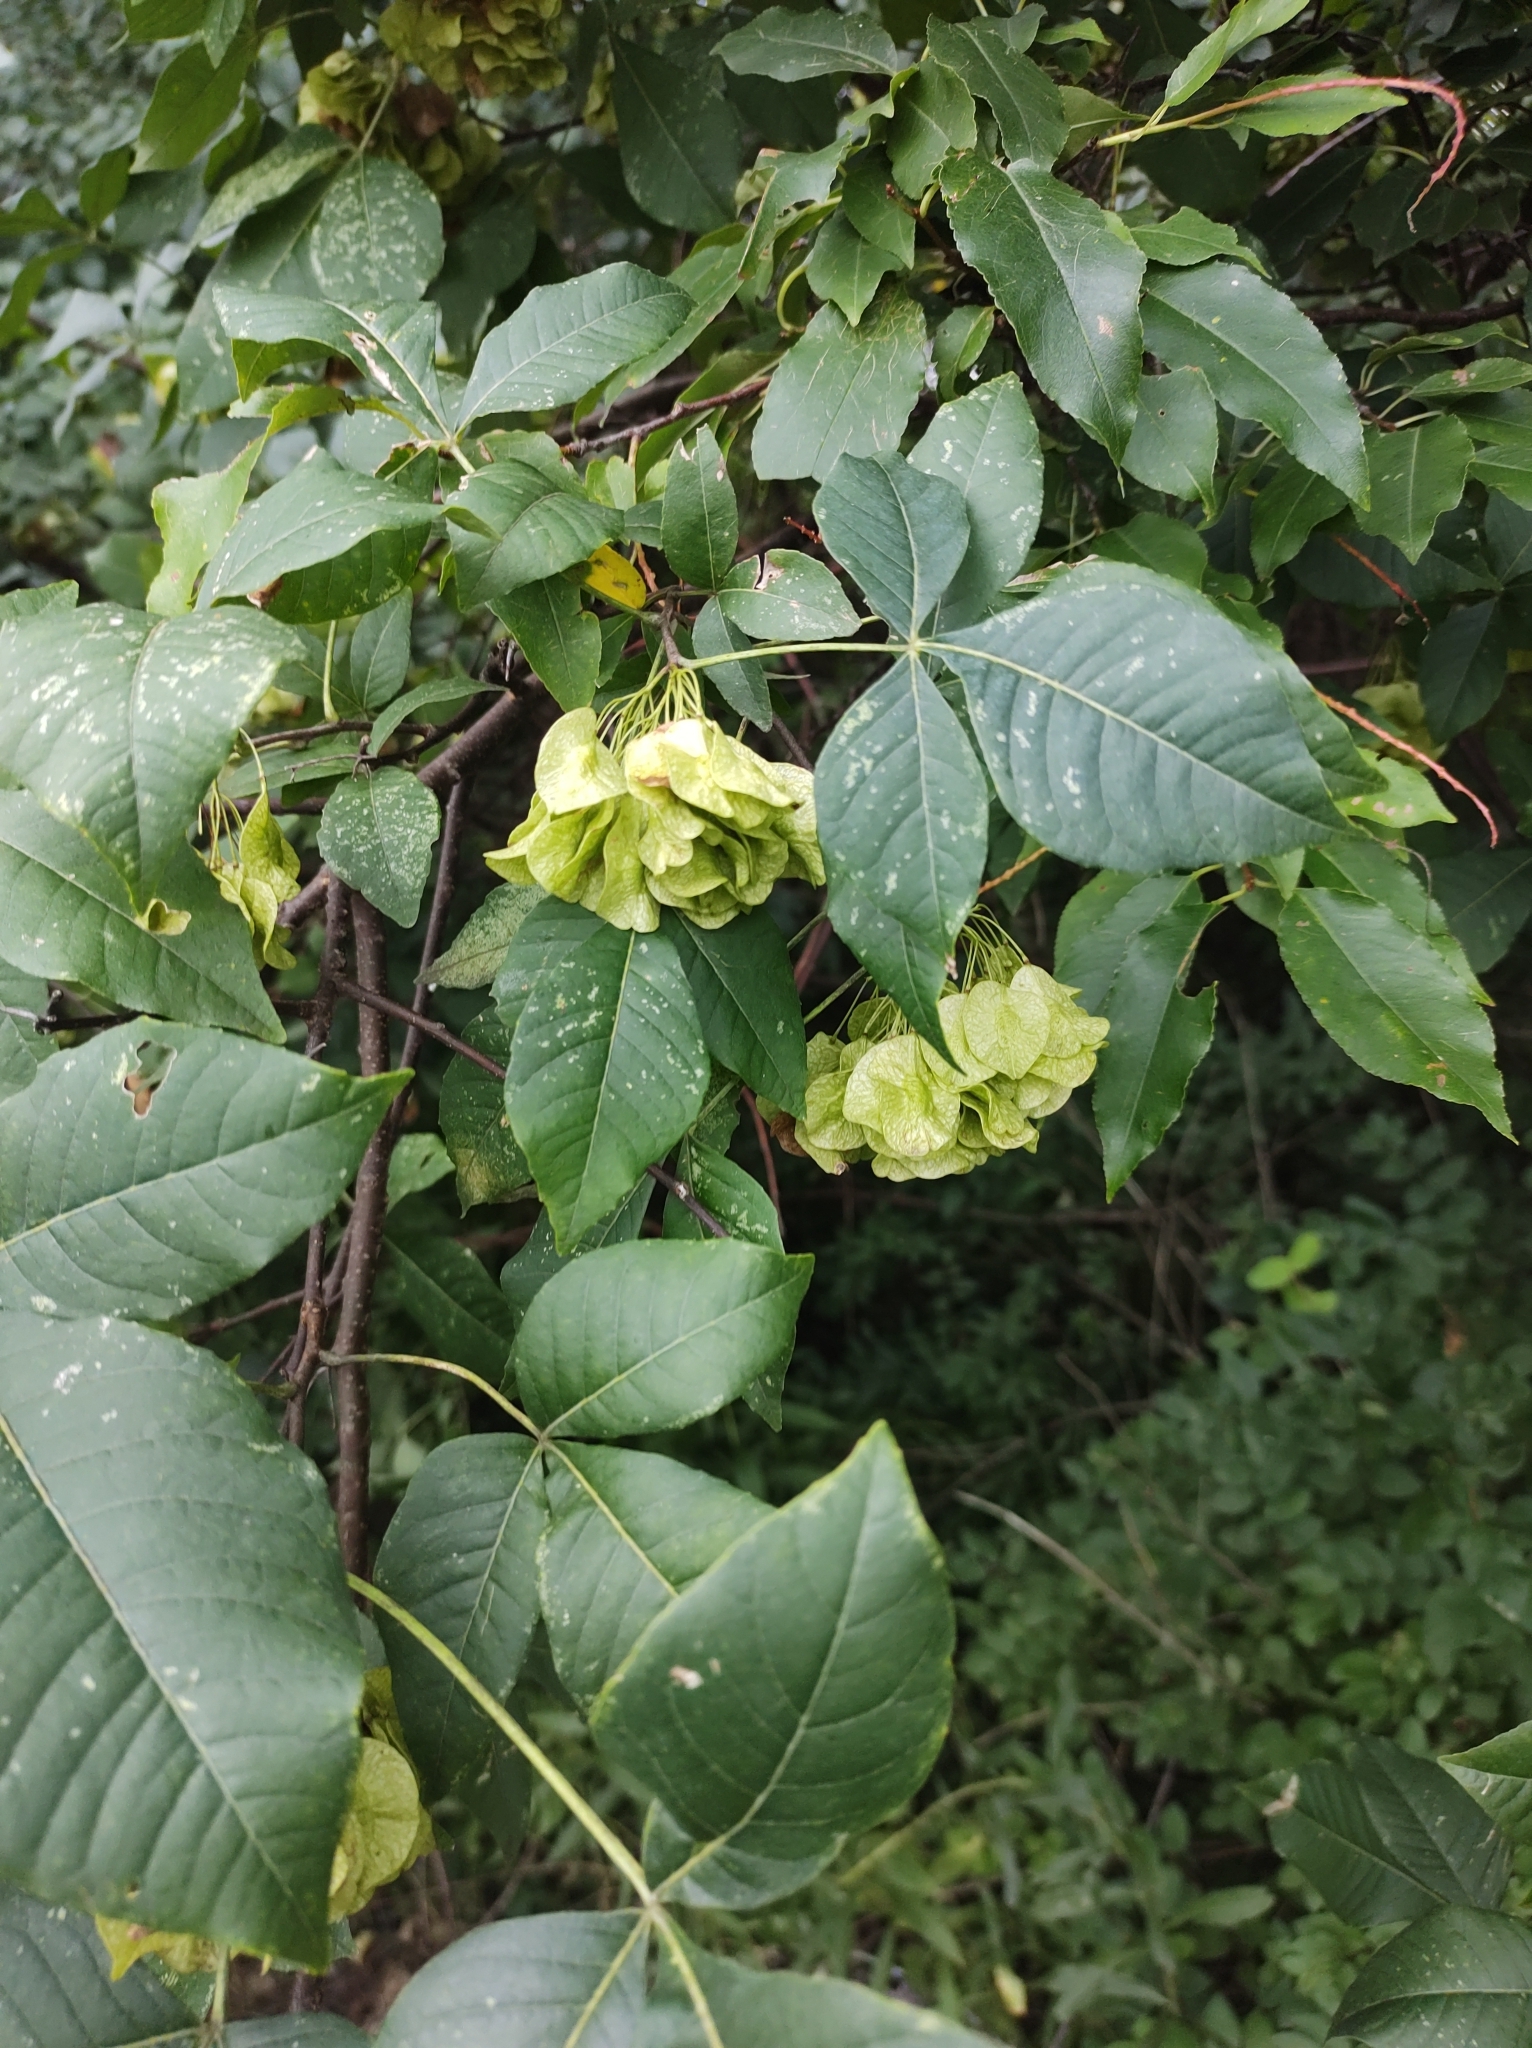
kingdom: Plantae
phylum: Tracheophyta
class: Magnoliopsida
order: Sapindales
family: Rutaceae
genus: Ptelea
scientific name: Ptelea trifoliata
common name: Common hop-tree
